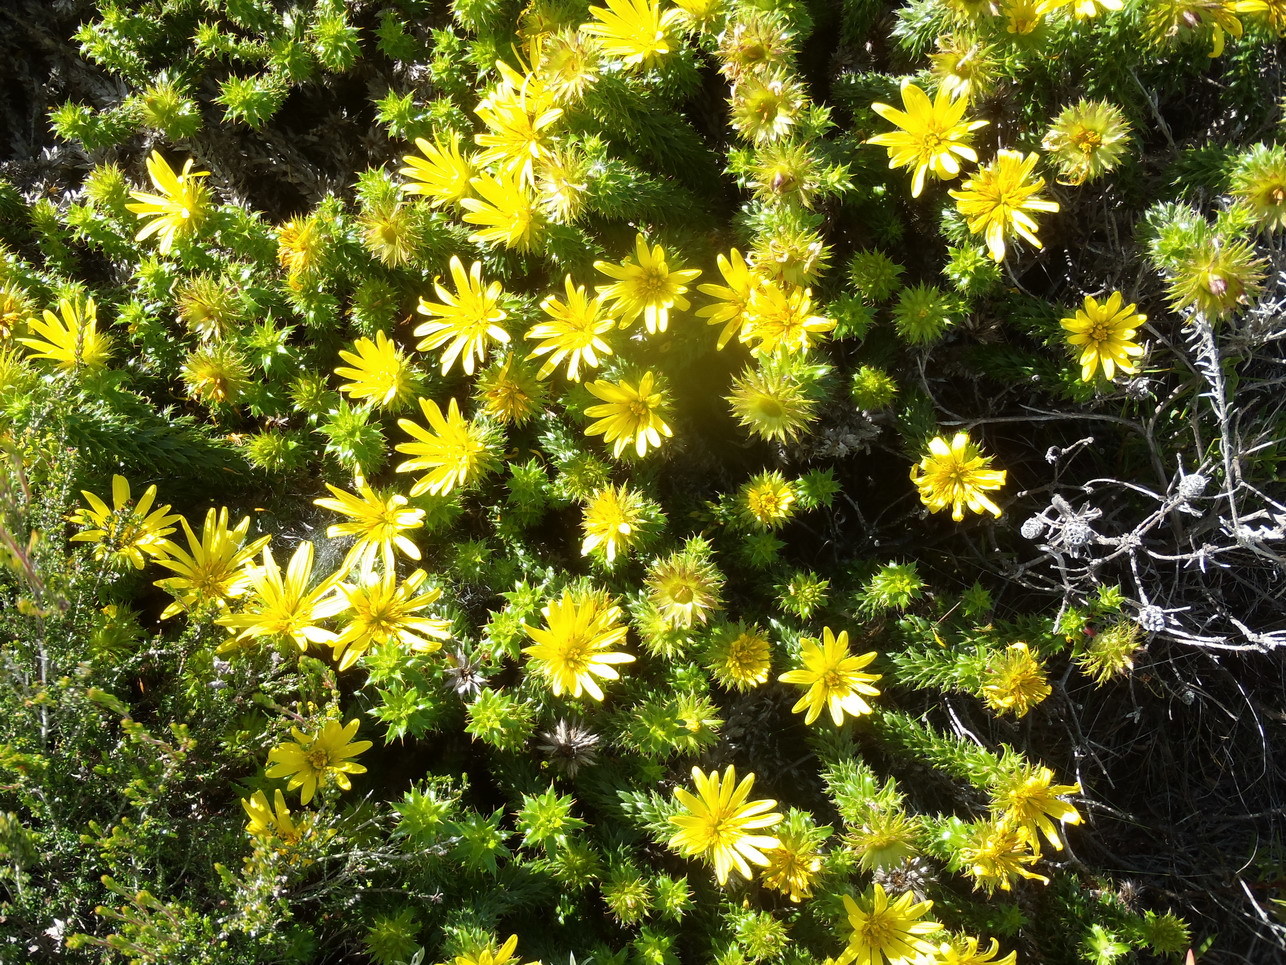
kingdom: Plantae
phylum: Tracheophyta
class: Magnoliopsida
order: Asterales
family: Asteraceae
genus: Cullumia
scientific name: Cullumia carlinoides
